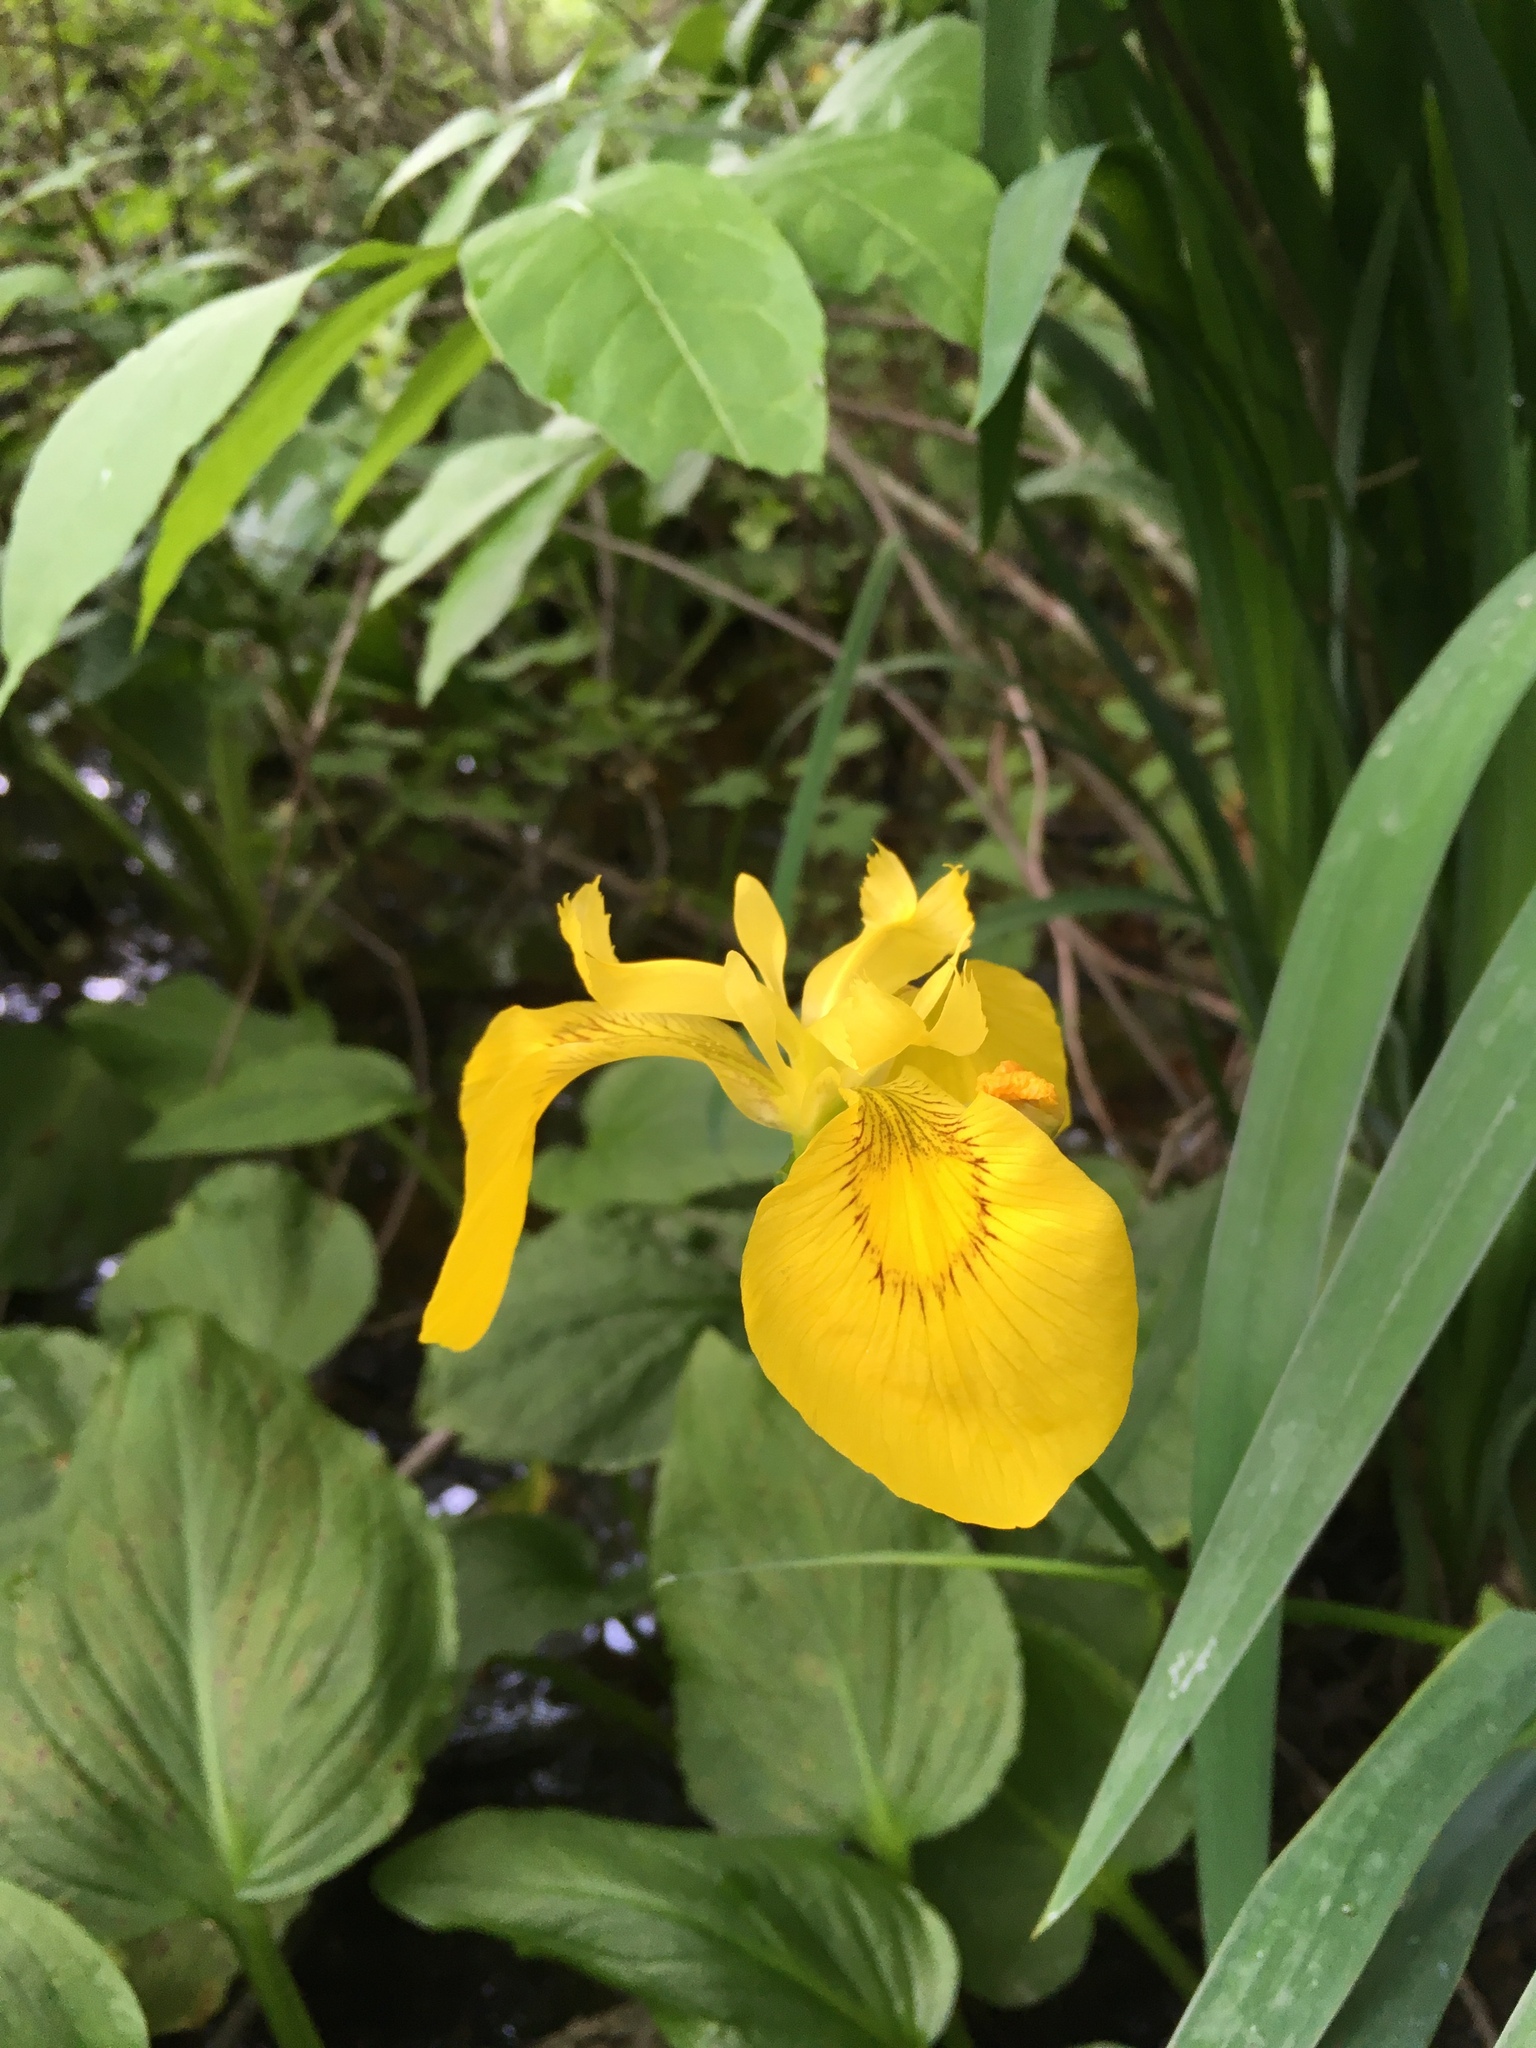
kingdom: Plantae
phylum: Tracheophyta
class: Liliopsida
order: Asparagales
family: Iridaceae
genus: Iris
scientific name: Iris pseudacorus
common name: Yellow flag
